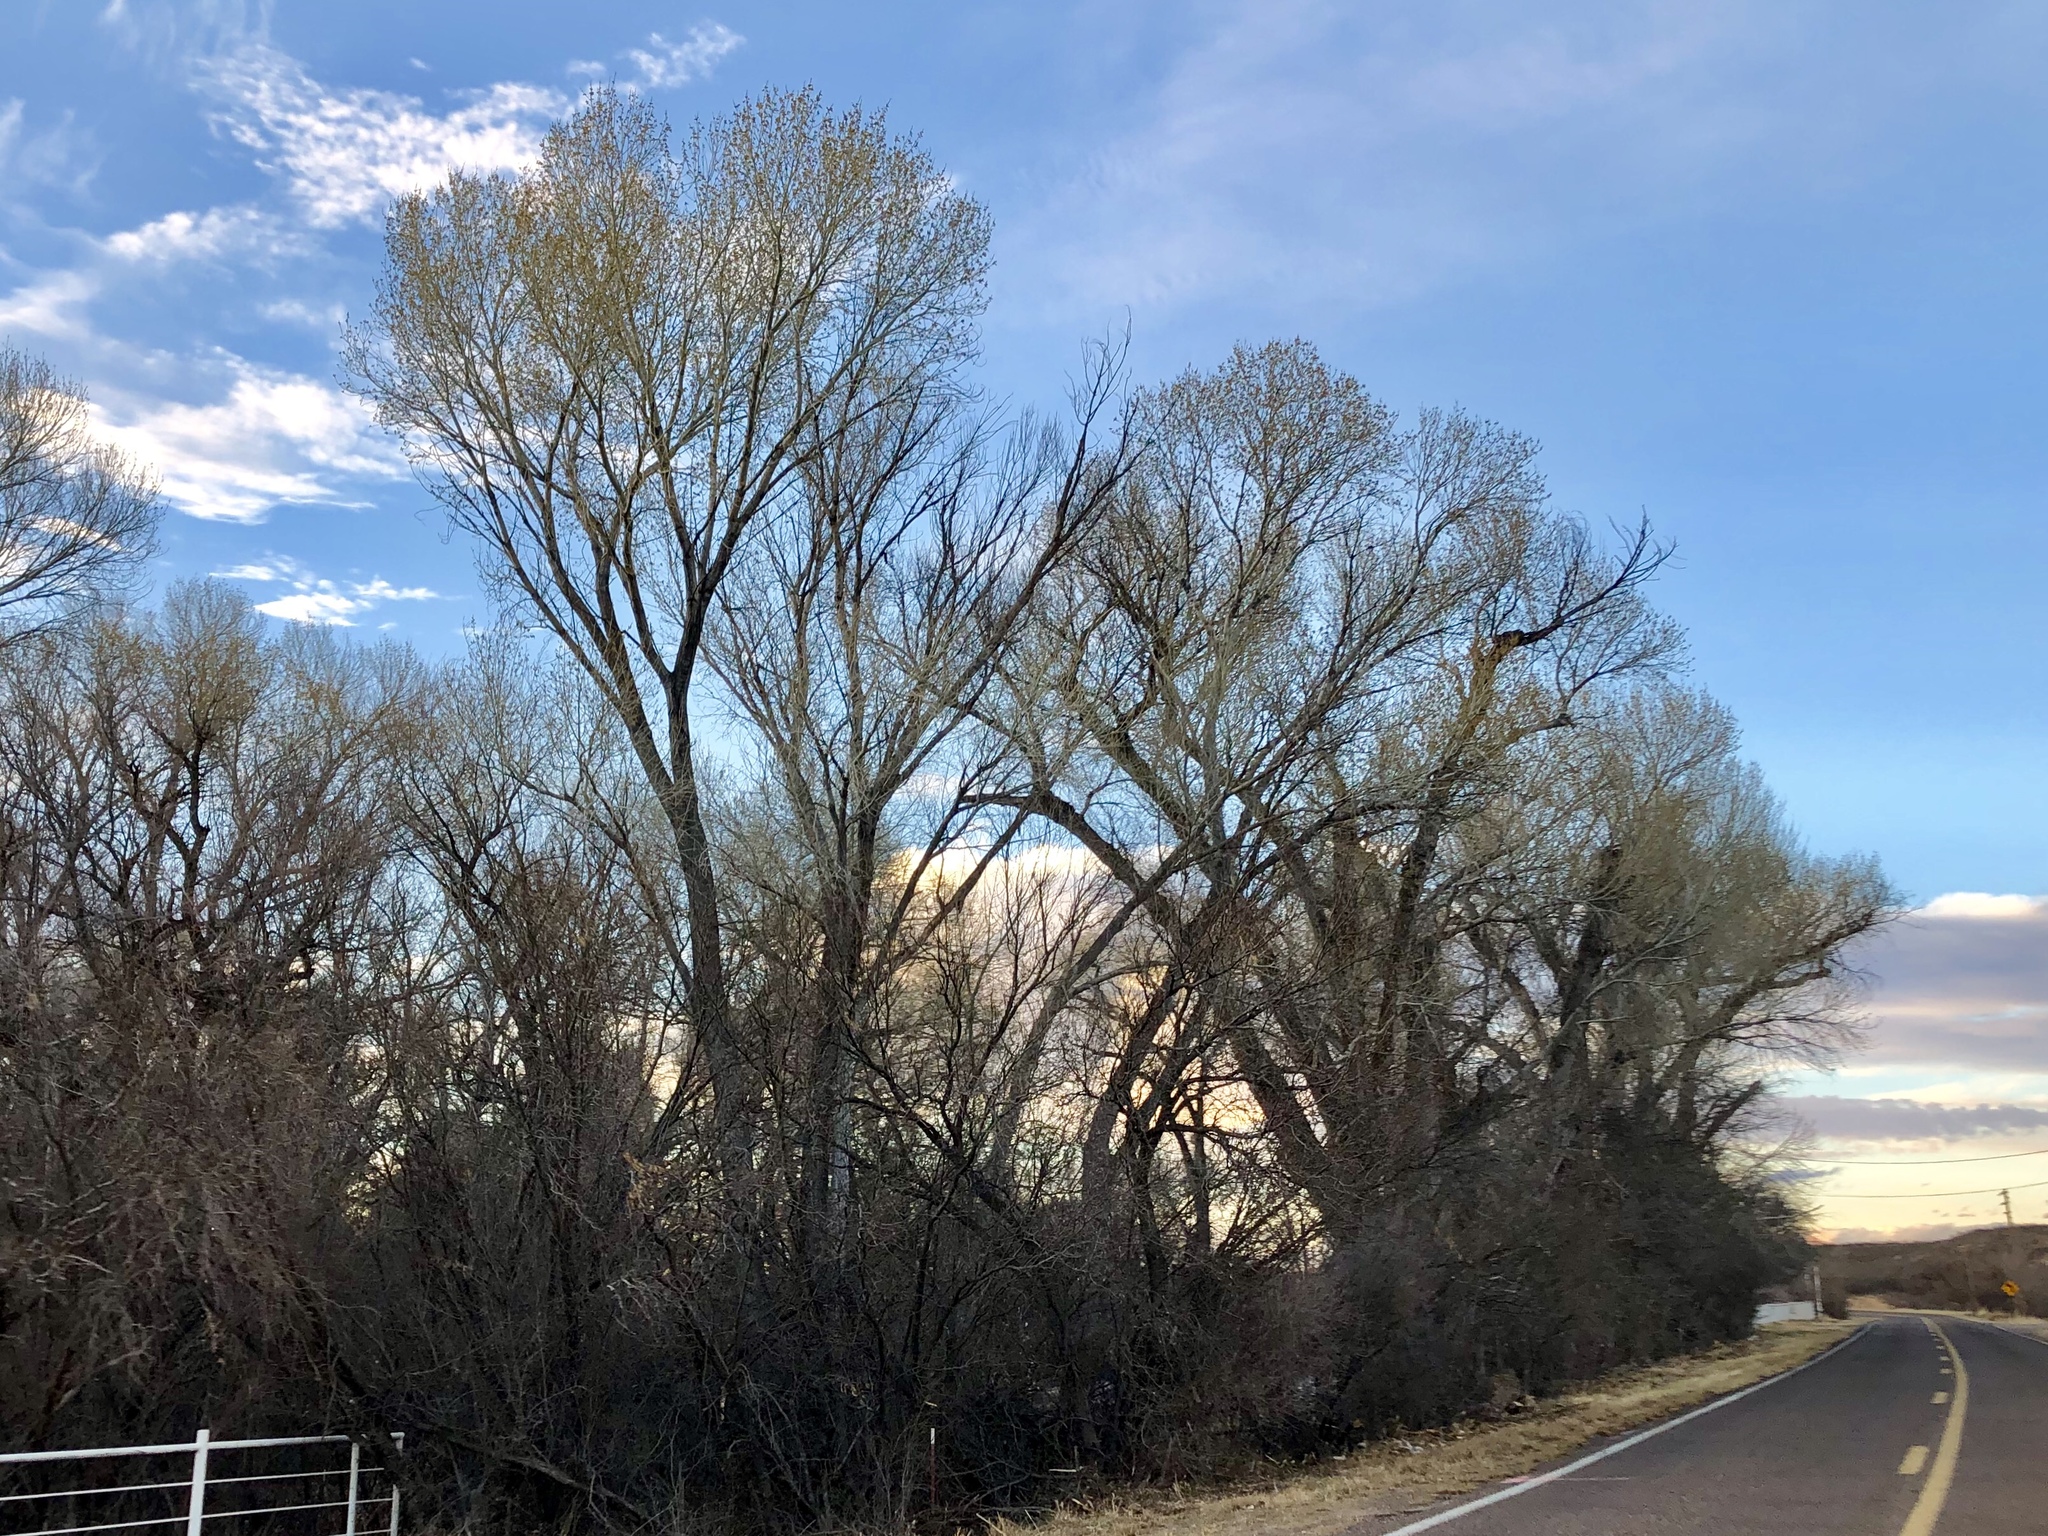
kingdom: Plantae
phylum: Tracheophyta
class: Magnoliopsida
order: Malpighiales
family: Salicaceae
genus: Populus
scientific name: Populus fremontii
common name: Fremont's cottonwood
